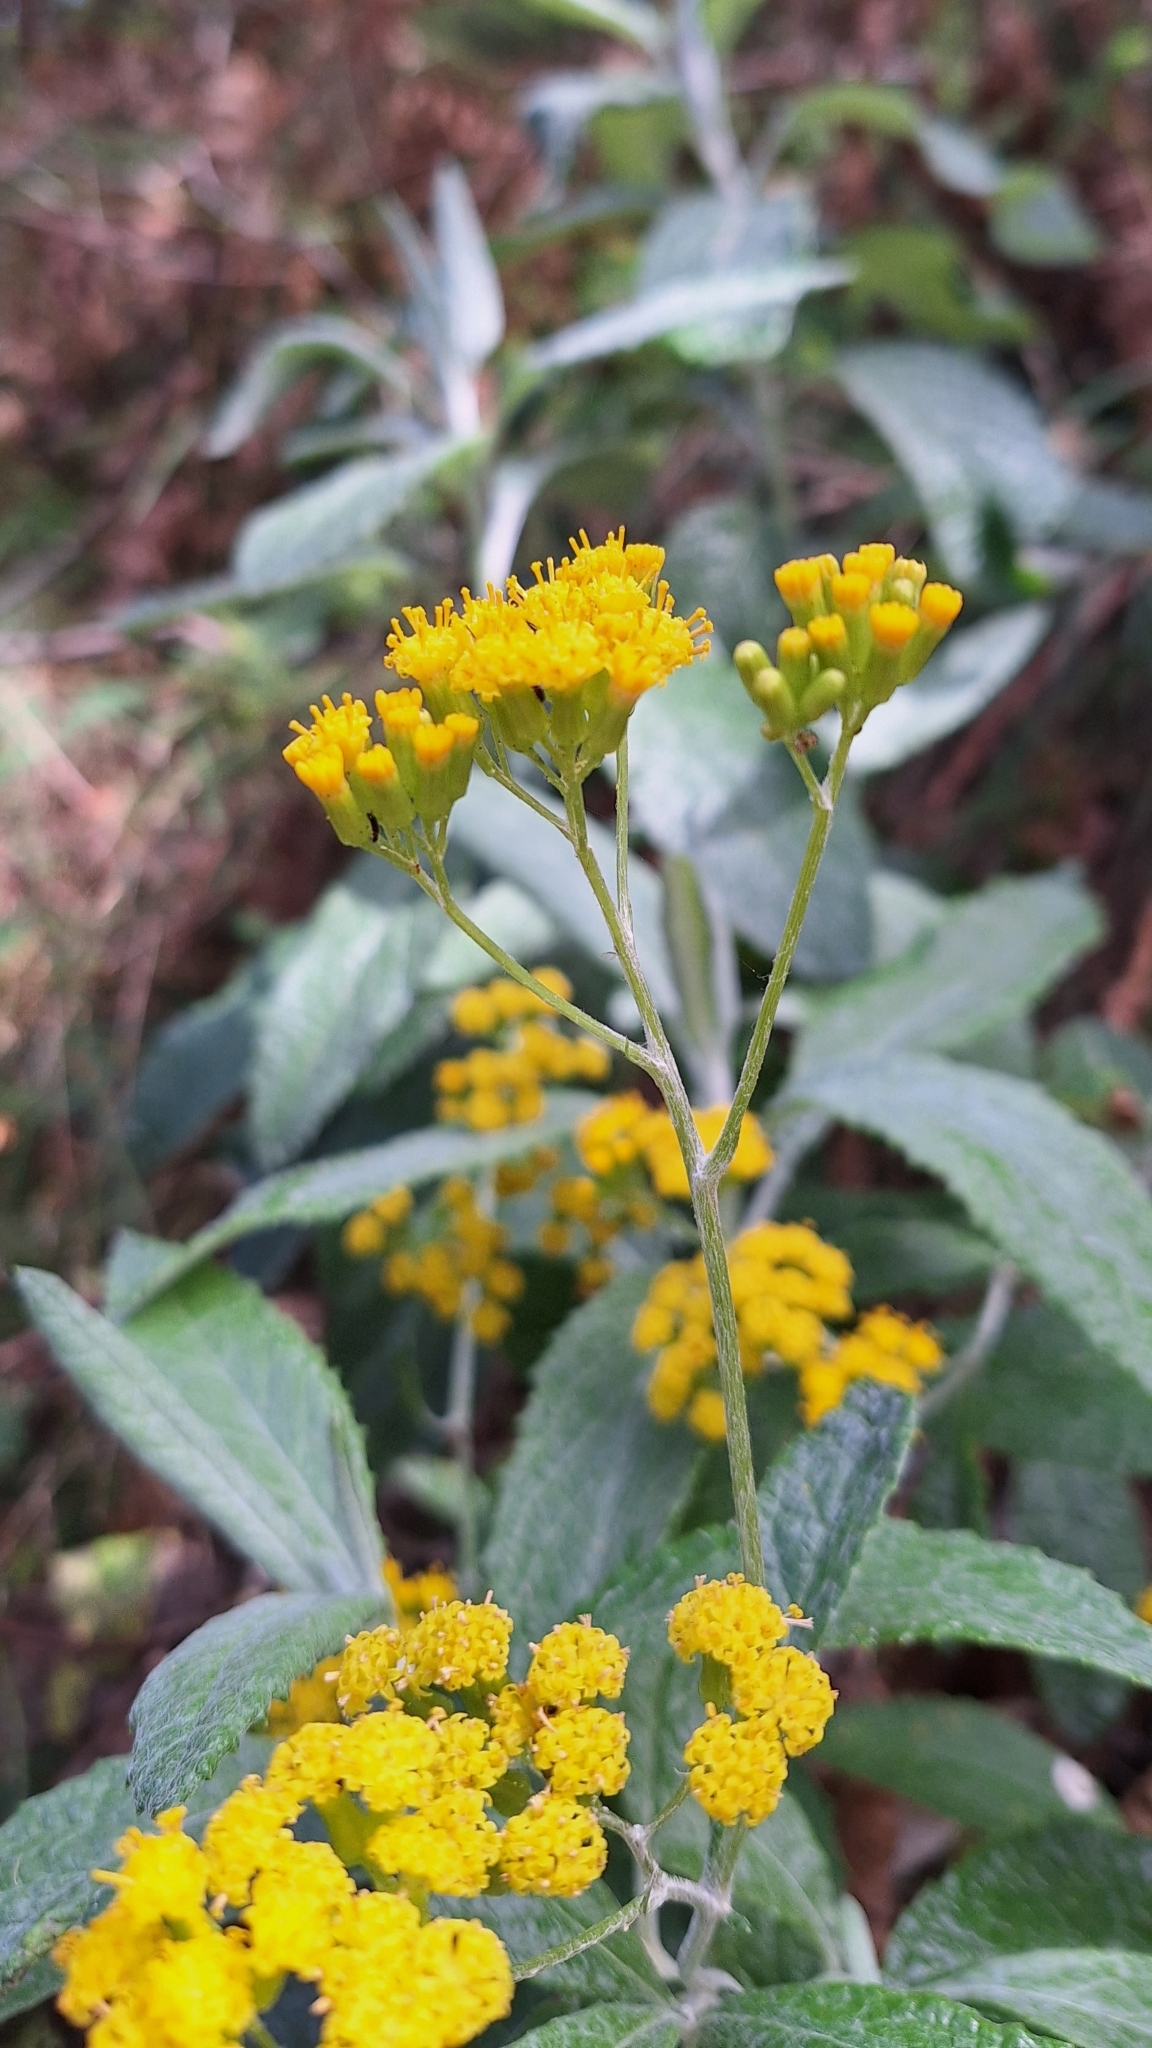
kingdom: Plantae
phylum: Tracheophyta
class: Magnoliopsida
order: Asterales
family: Asteraceae
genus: Senecio
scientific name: Senecio hypoleucus
